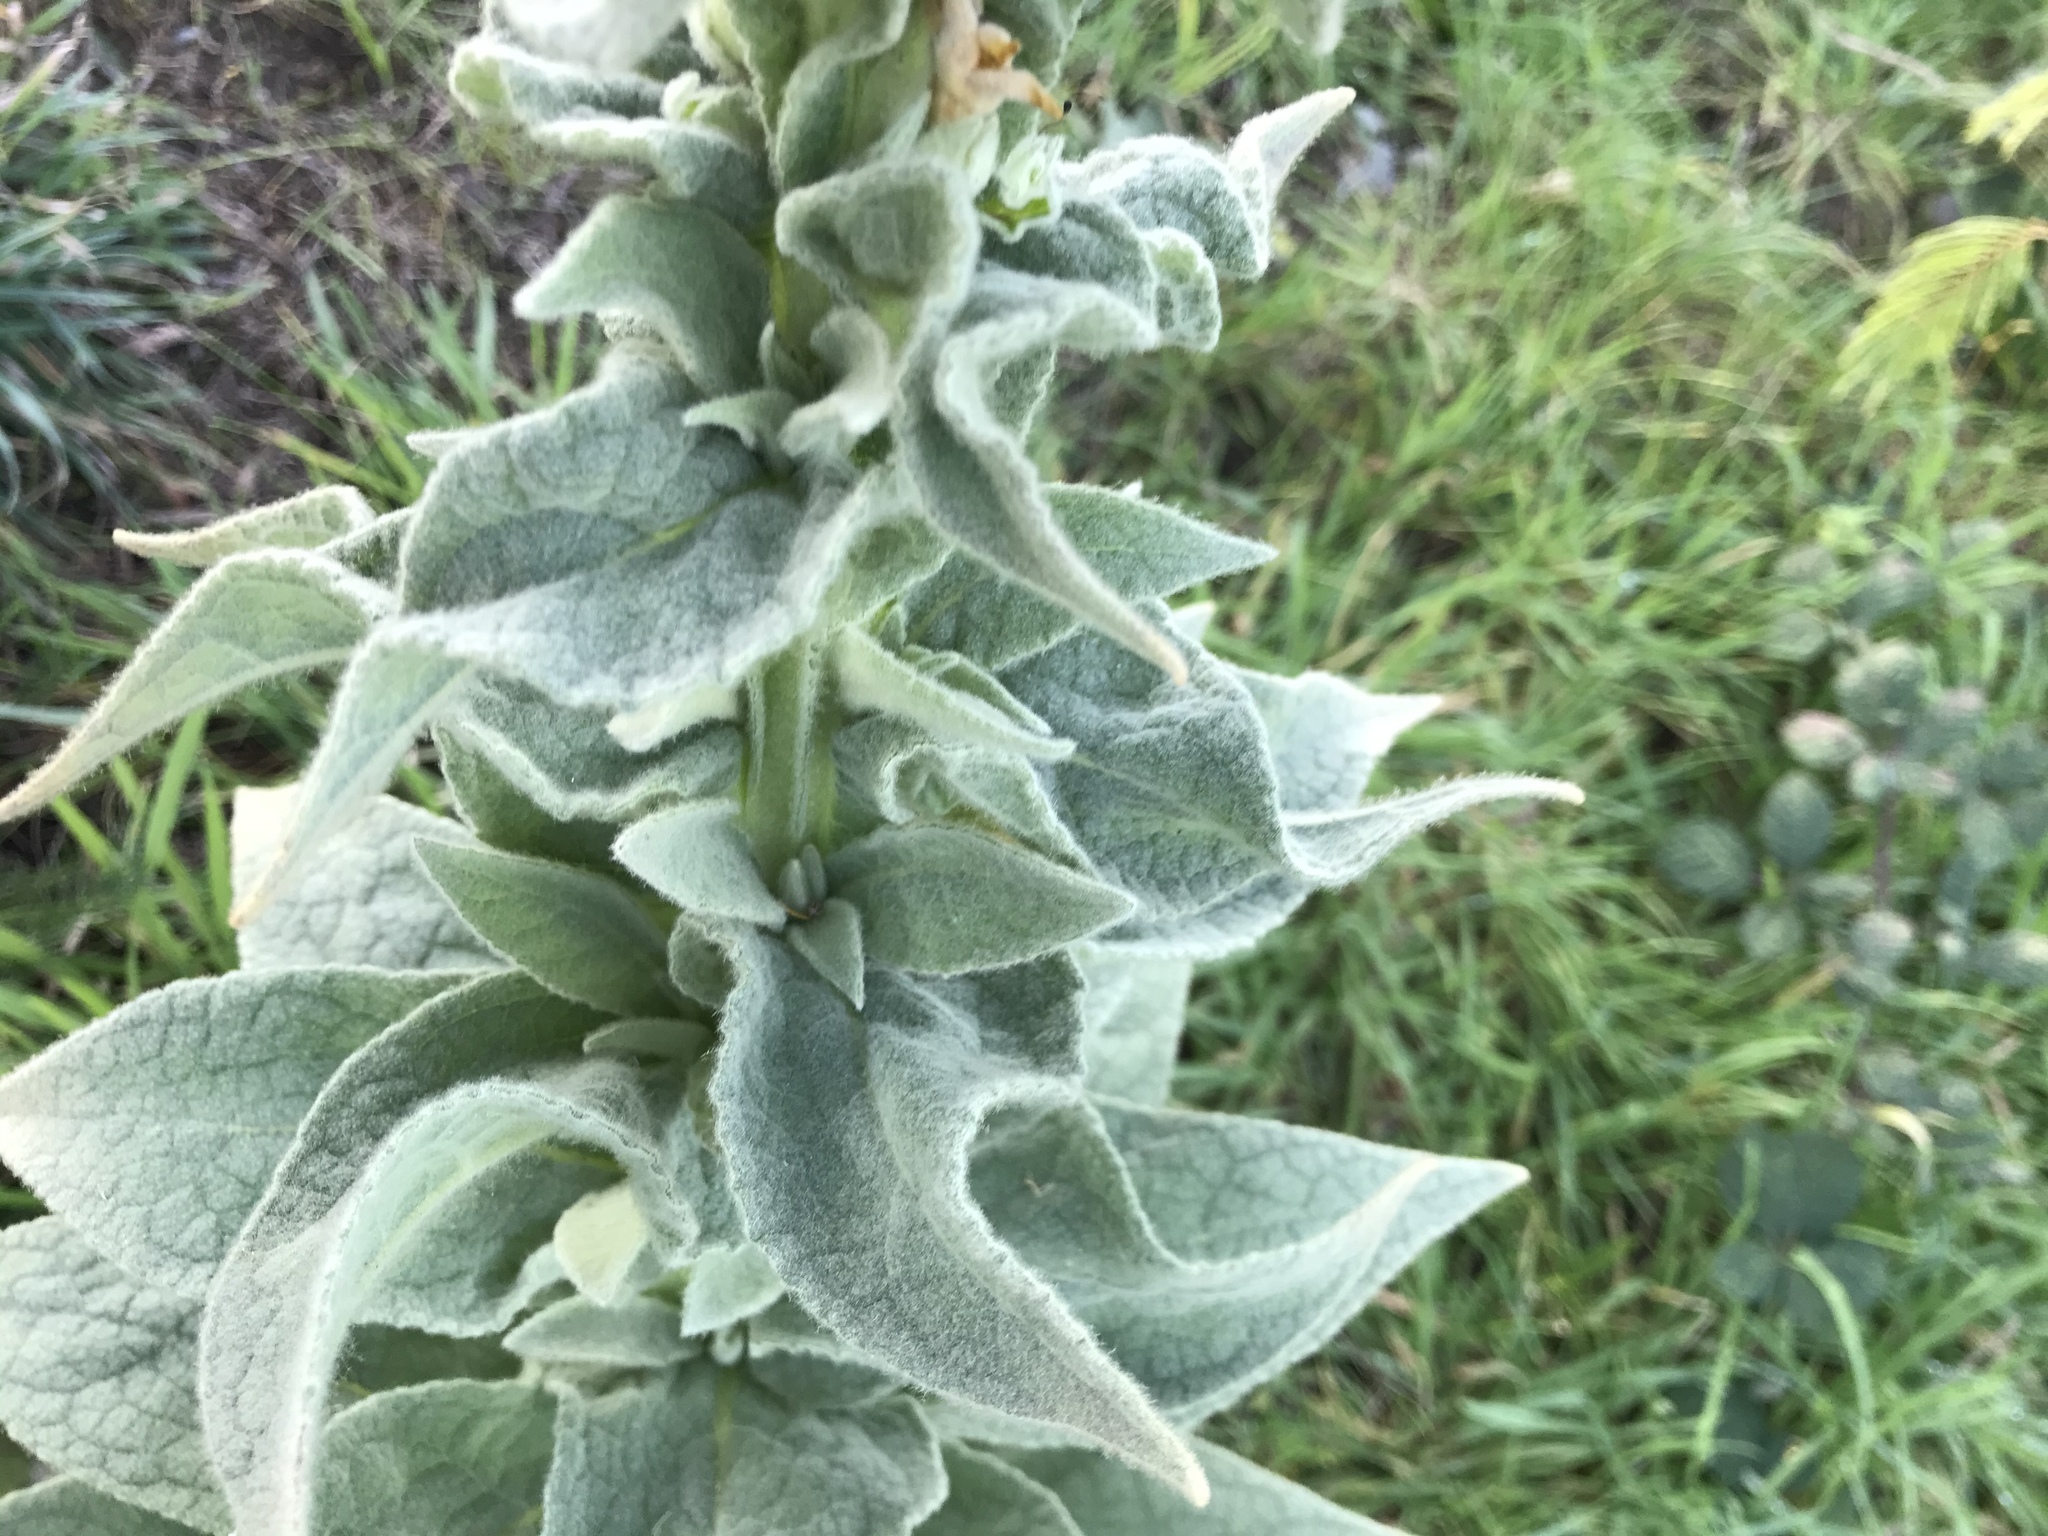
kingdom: Plantae
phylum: Tracheophyta
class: Magnoliopsida
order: Lamiales
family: Scrophulariaceae
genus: Verbascum
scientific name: Verbascum thapsus
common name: Common mullein
